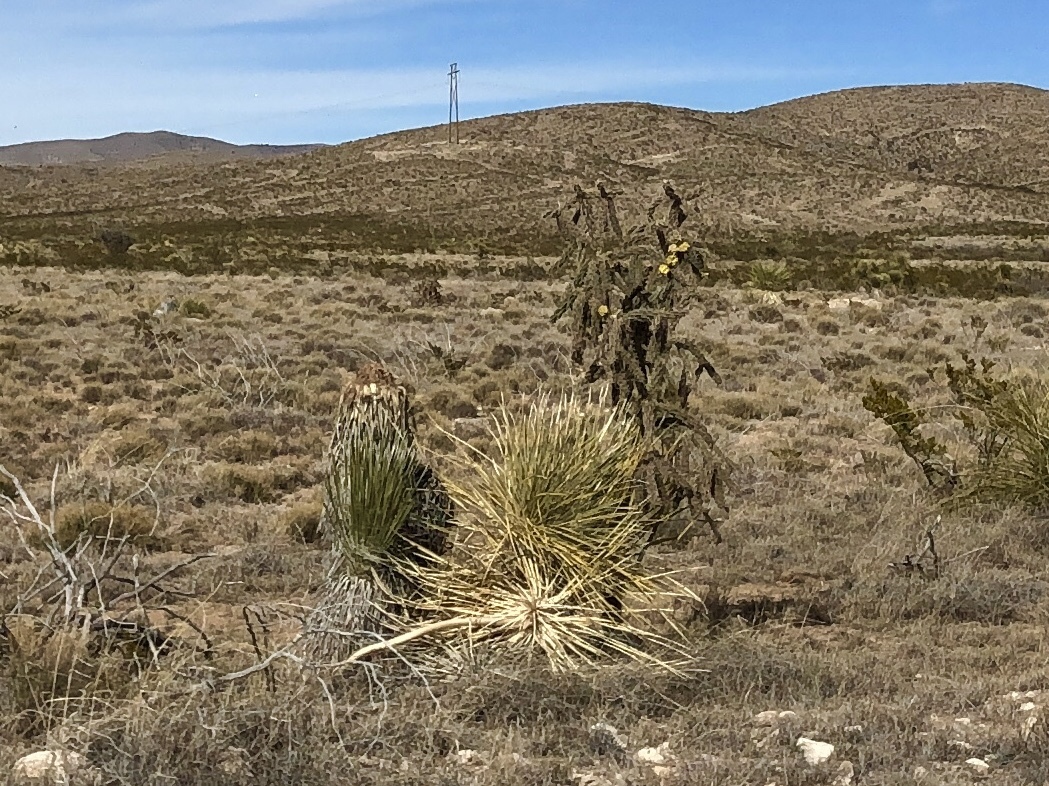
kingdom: Plantae
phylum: Tracheophyta
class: Liliopsida
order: Asparagales
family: Asparagaceae
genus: Yucca
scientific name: Yucca baccata
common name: Banana yucca
